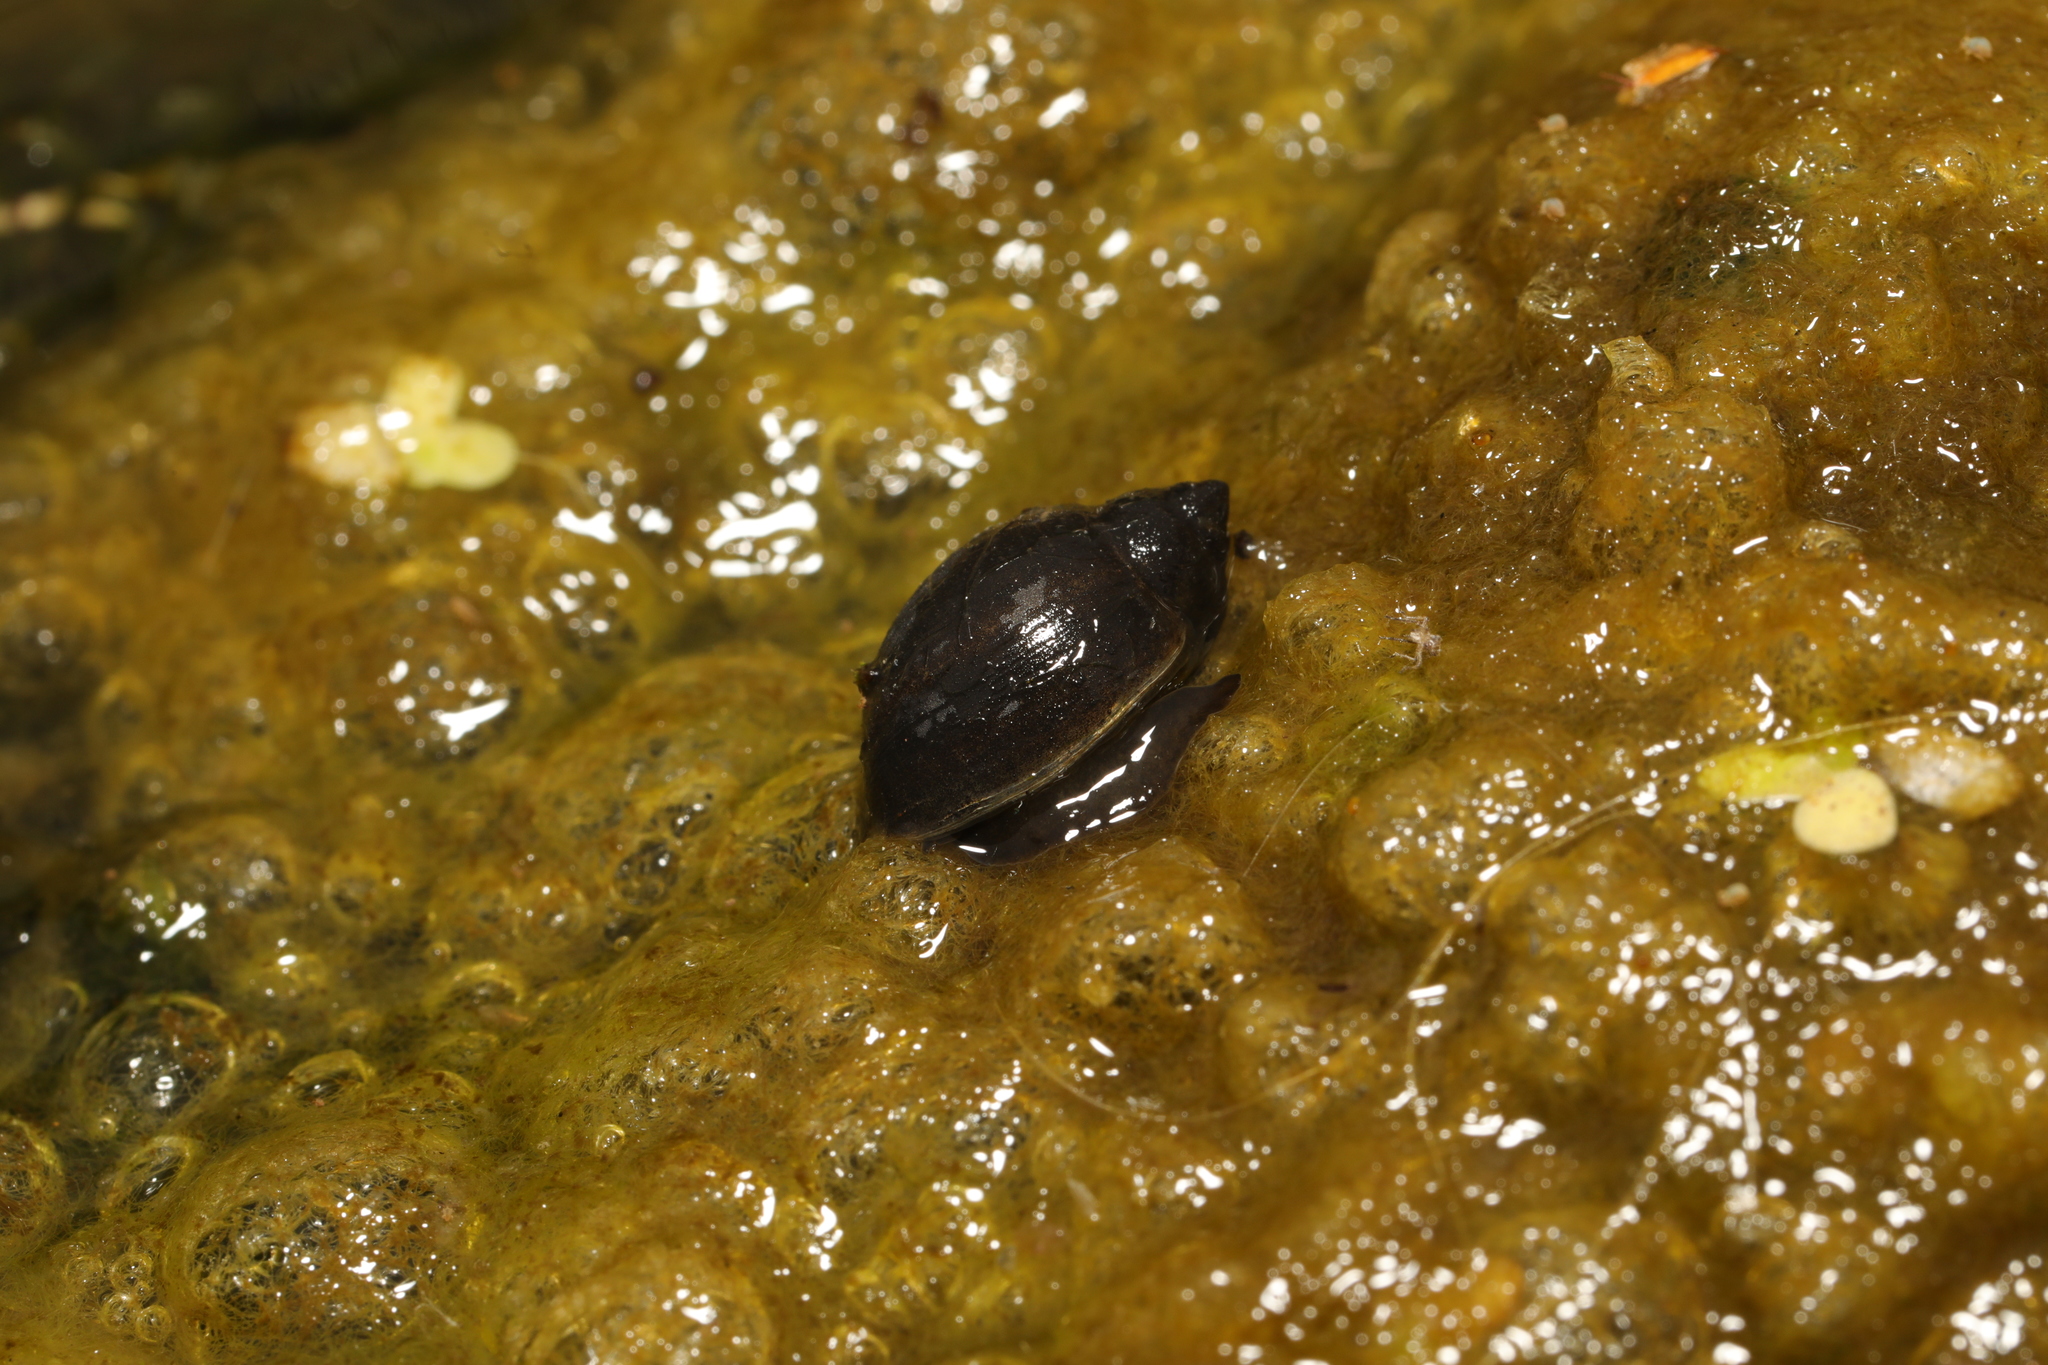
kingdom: Animalia
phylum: Mollusca
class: Gastropoda
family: Physidae
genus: Physella
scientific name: Physella acuta
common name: European physa
